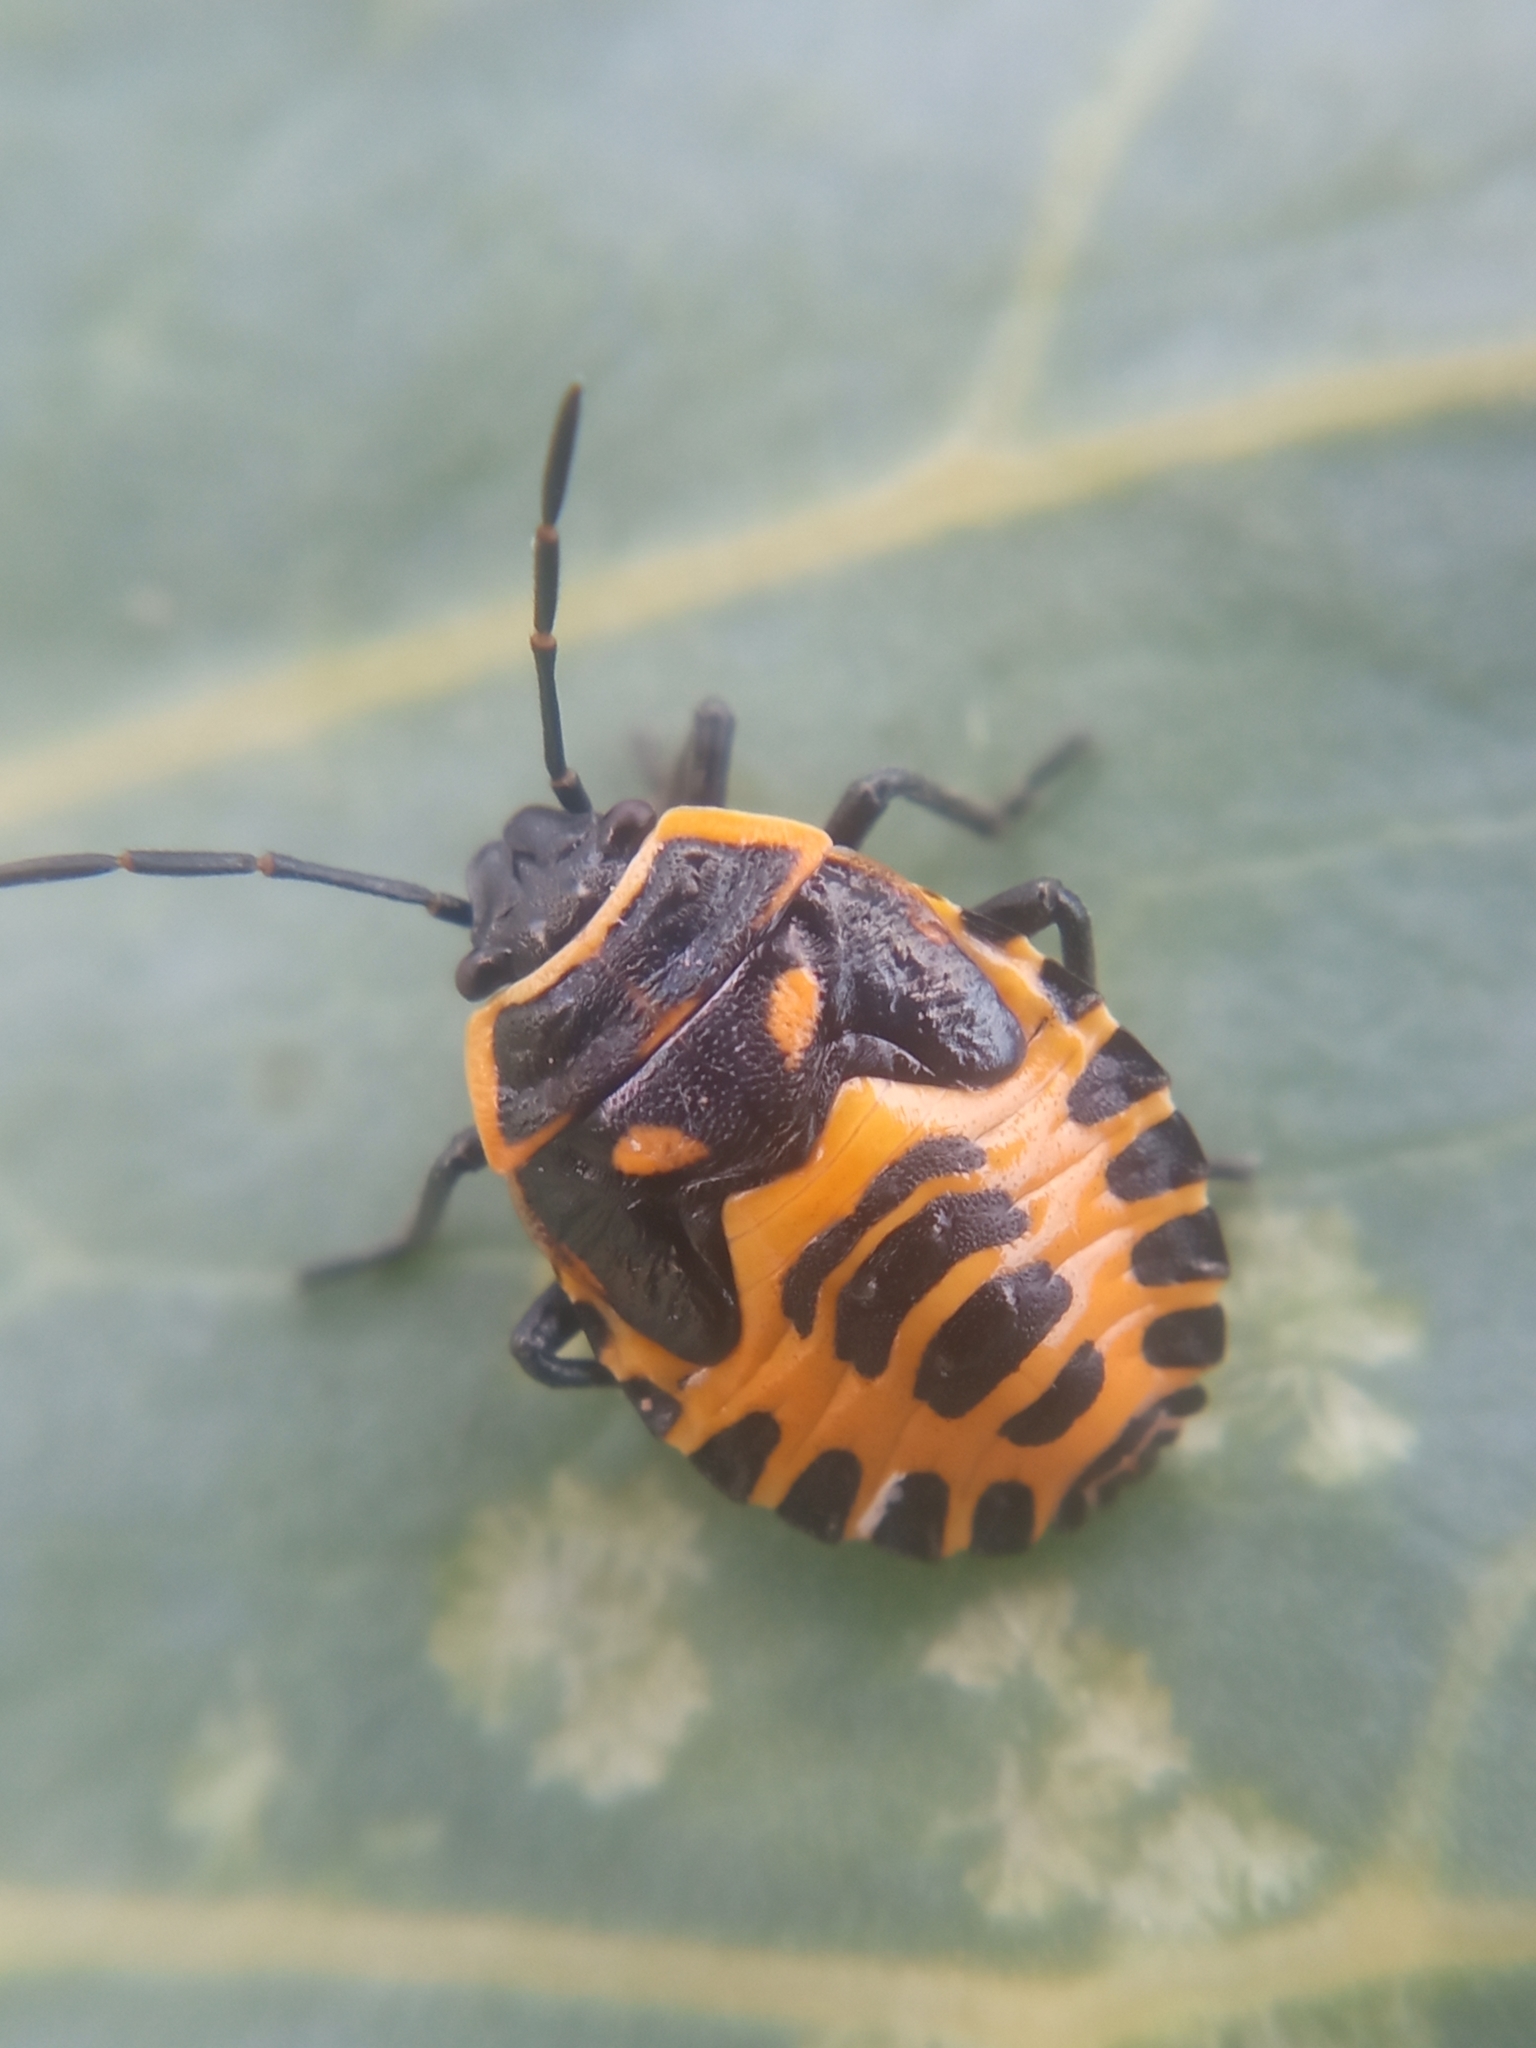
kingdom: Animalia
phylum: Arthropoda
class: Insecta
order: Hemiptera
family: Pentatomidae
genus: Eurydema
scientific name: Eurydema ventralis
